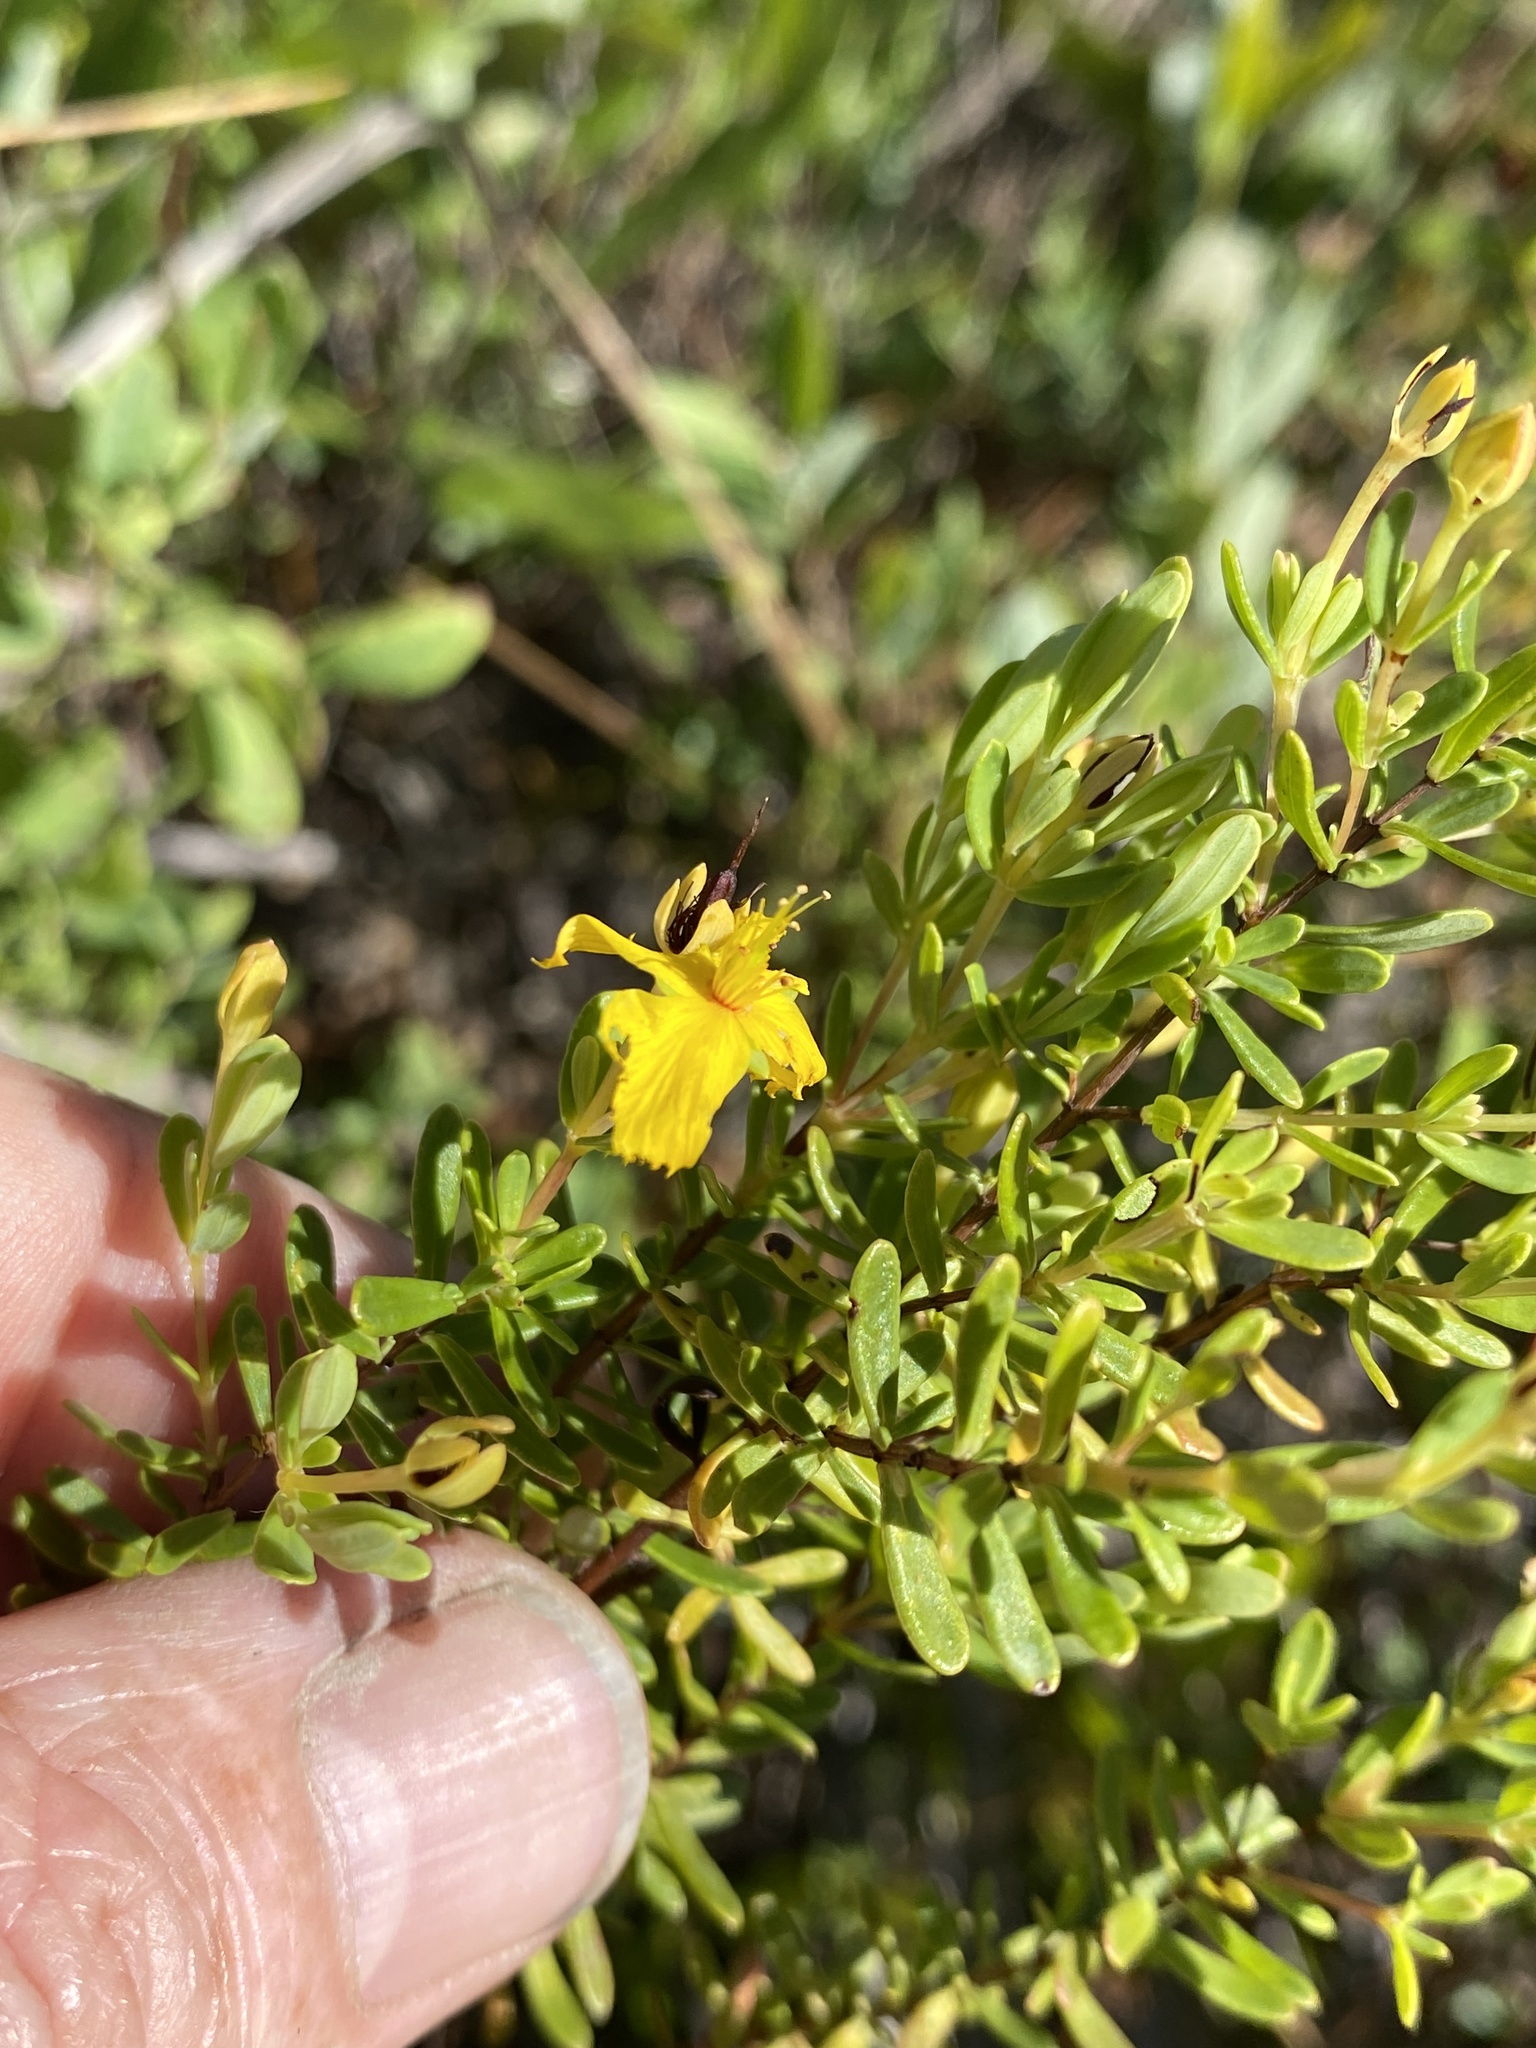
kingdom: Plantae
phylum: Tracheophyta
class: Magnoliopsida
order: Malpighiales
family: Hypericaceae
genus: Hypericum
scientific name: Hypericum microsepalum
